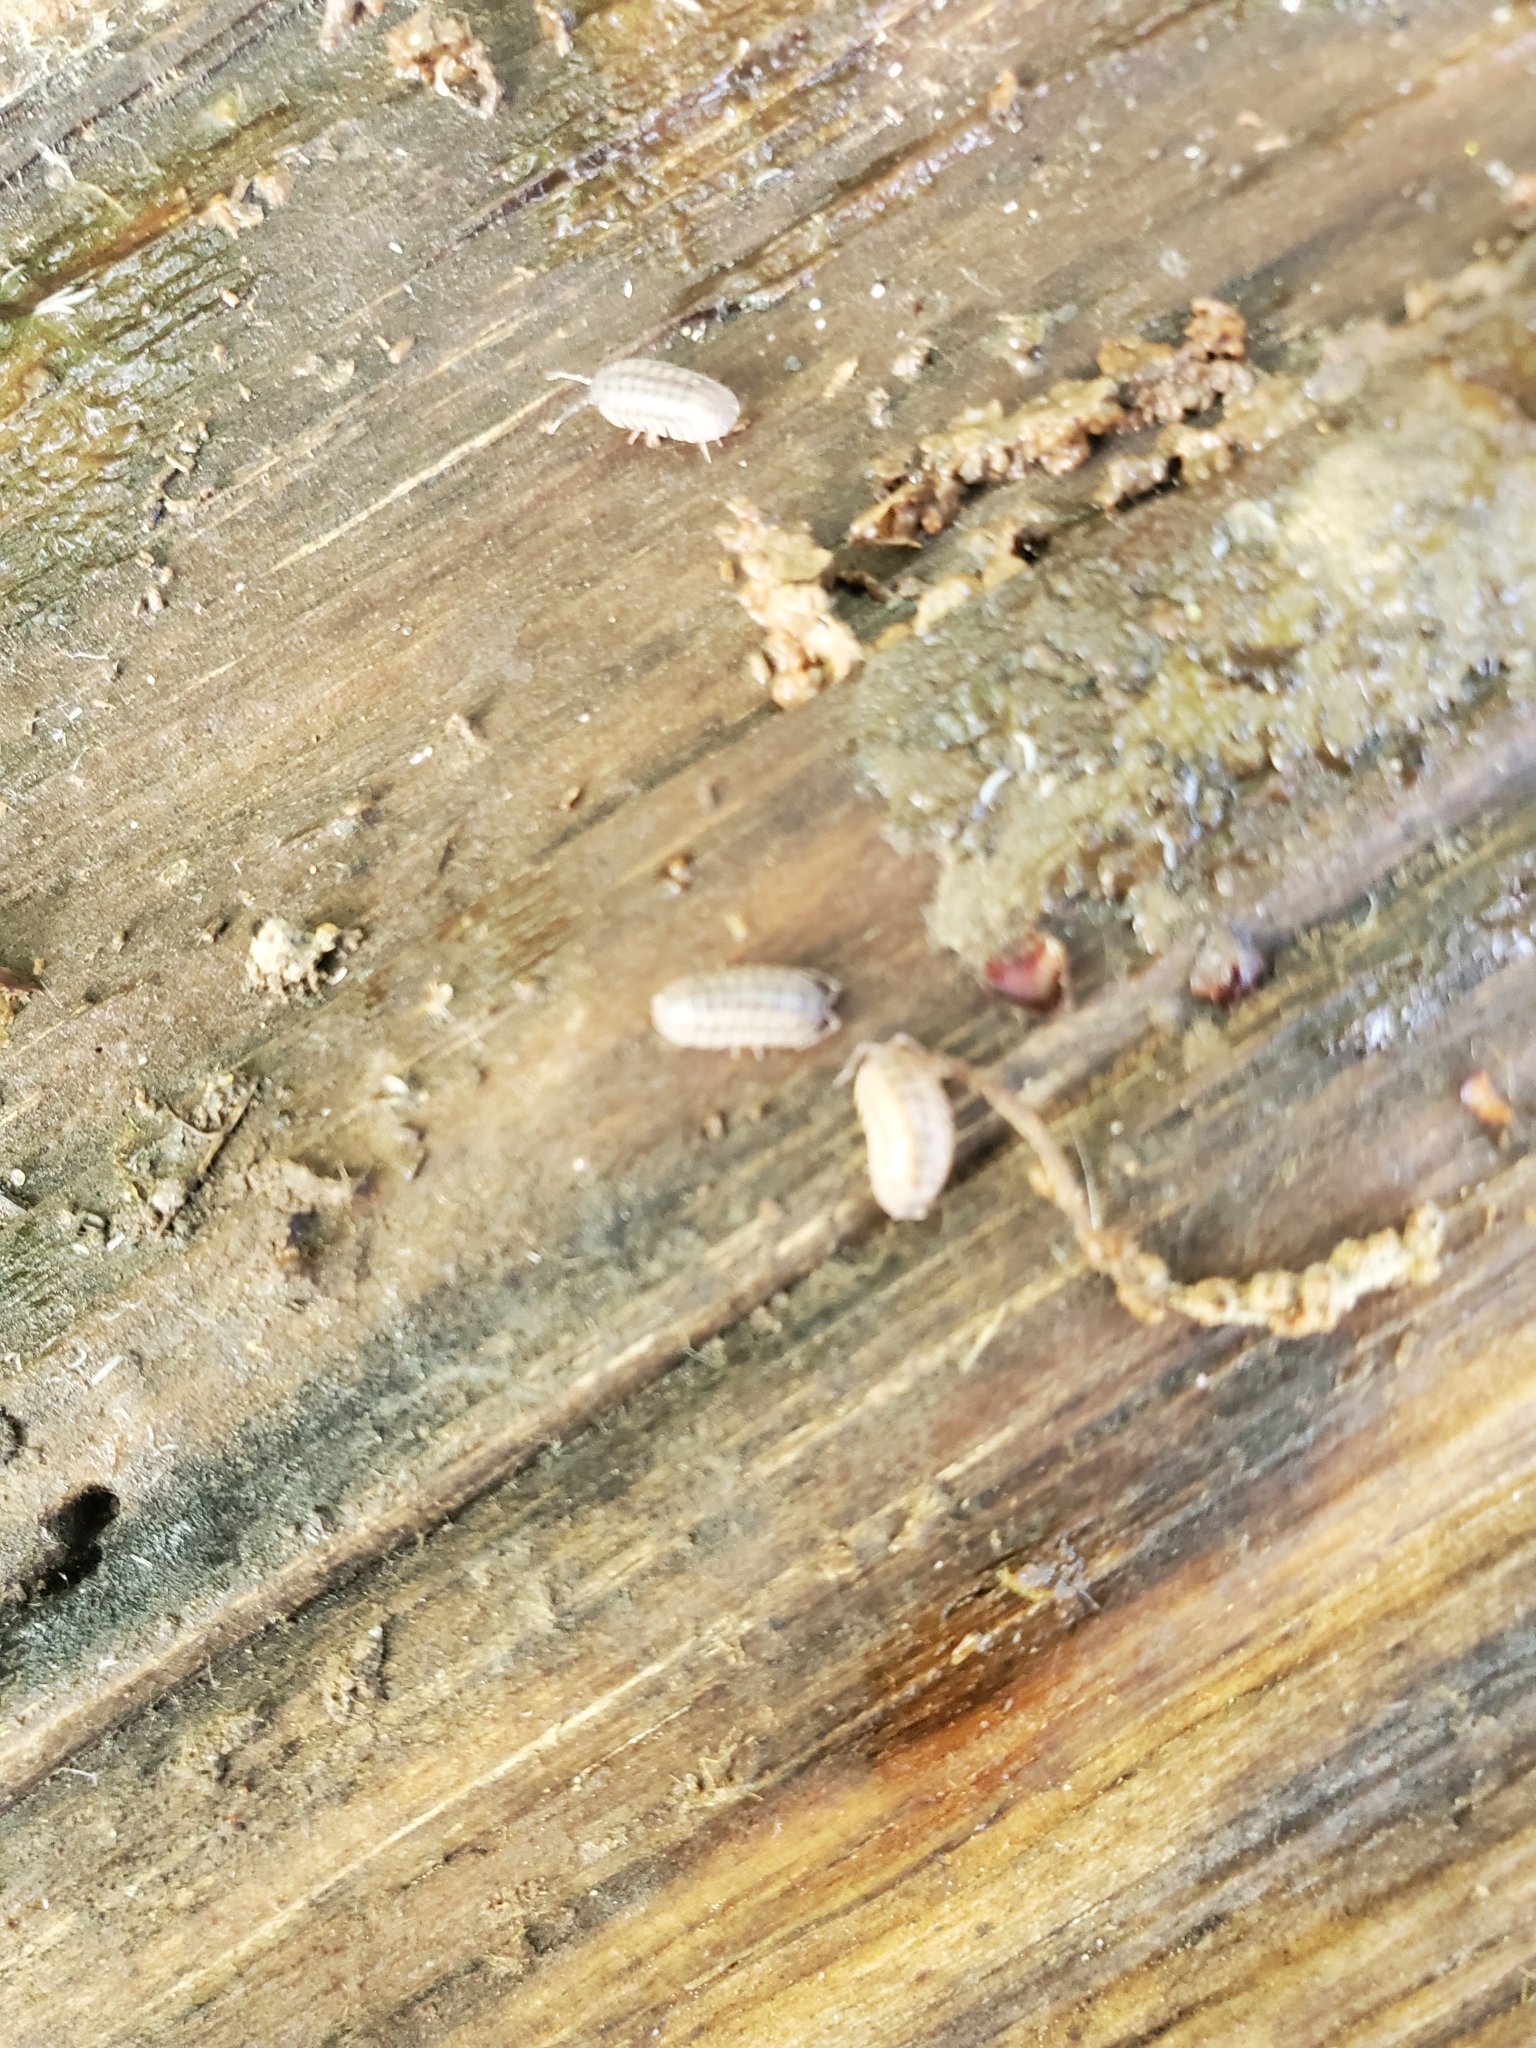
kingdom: Animalia
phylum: Arthropoda
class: Malacostraca
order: Isopoda
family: Armadillidiidae
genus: Armadillidium
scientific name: Armadillidium nasatum
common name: Isopod
